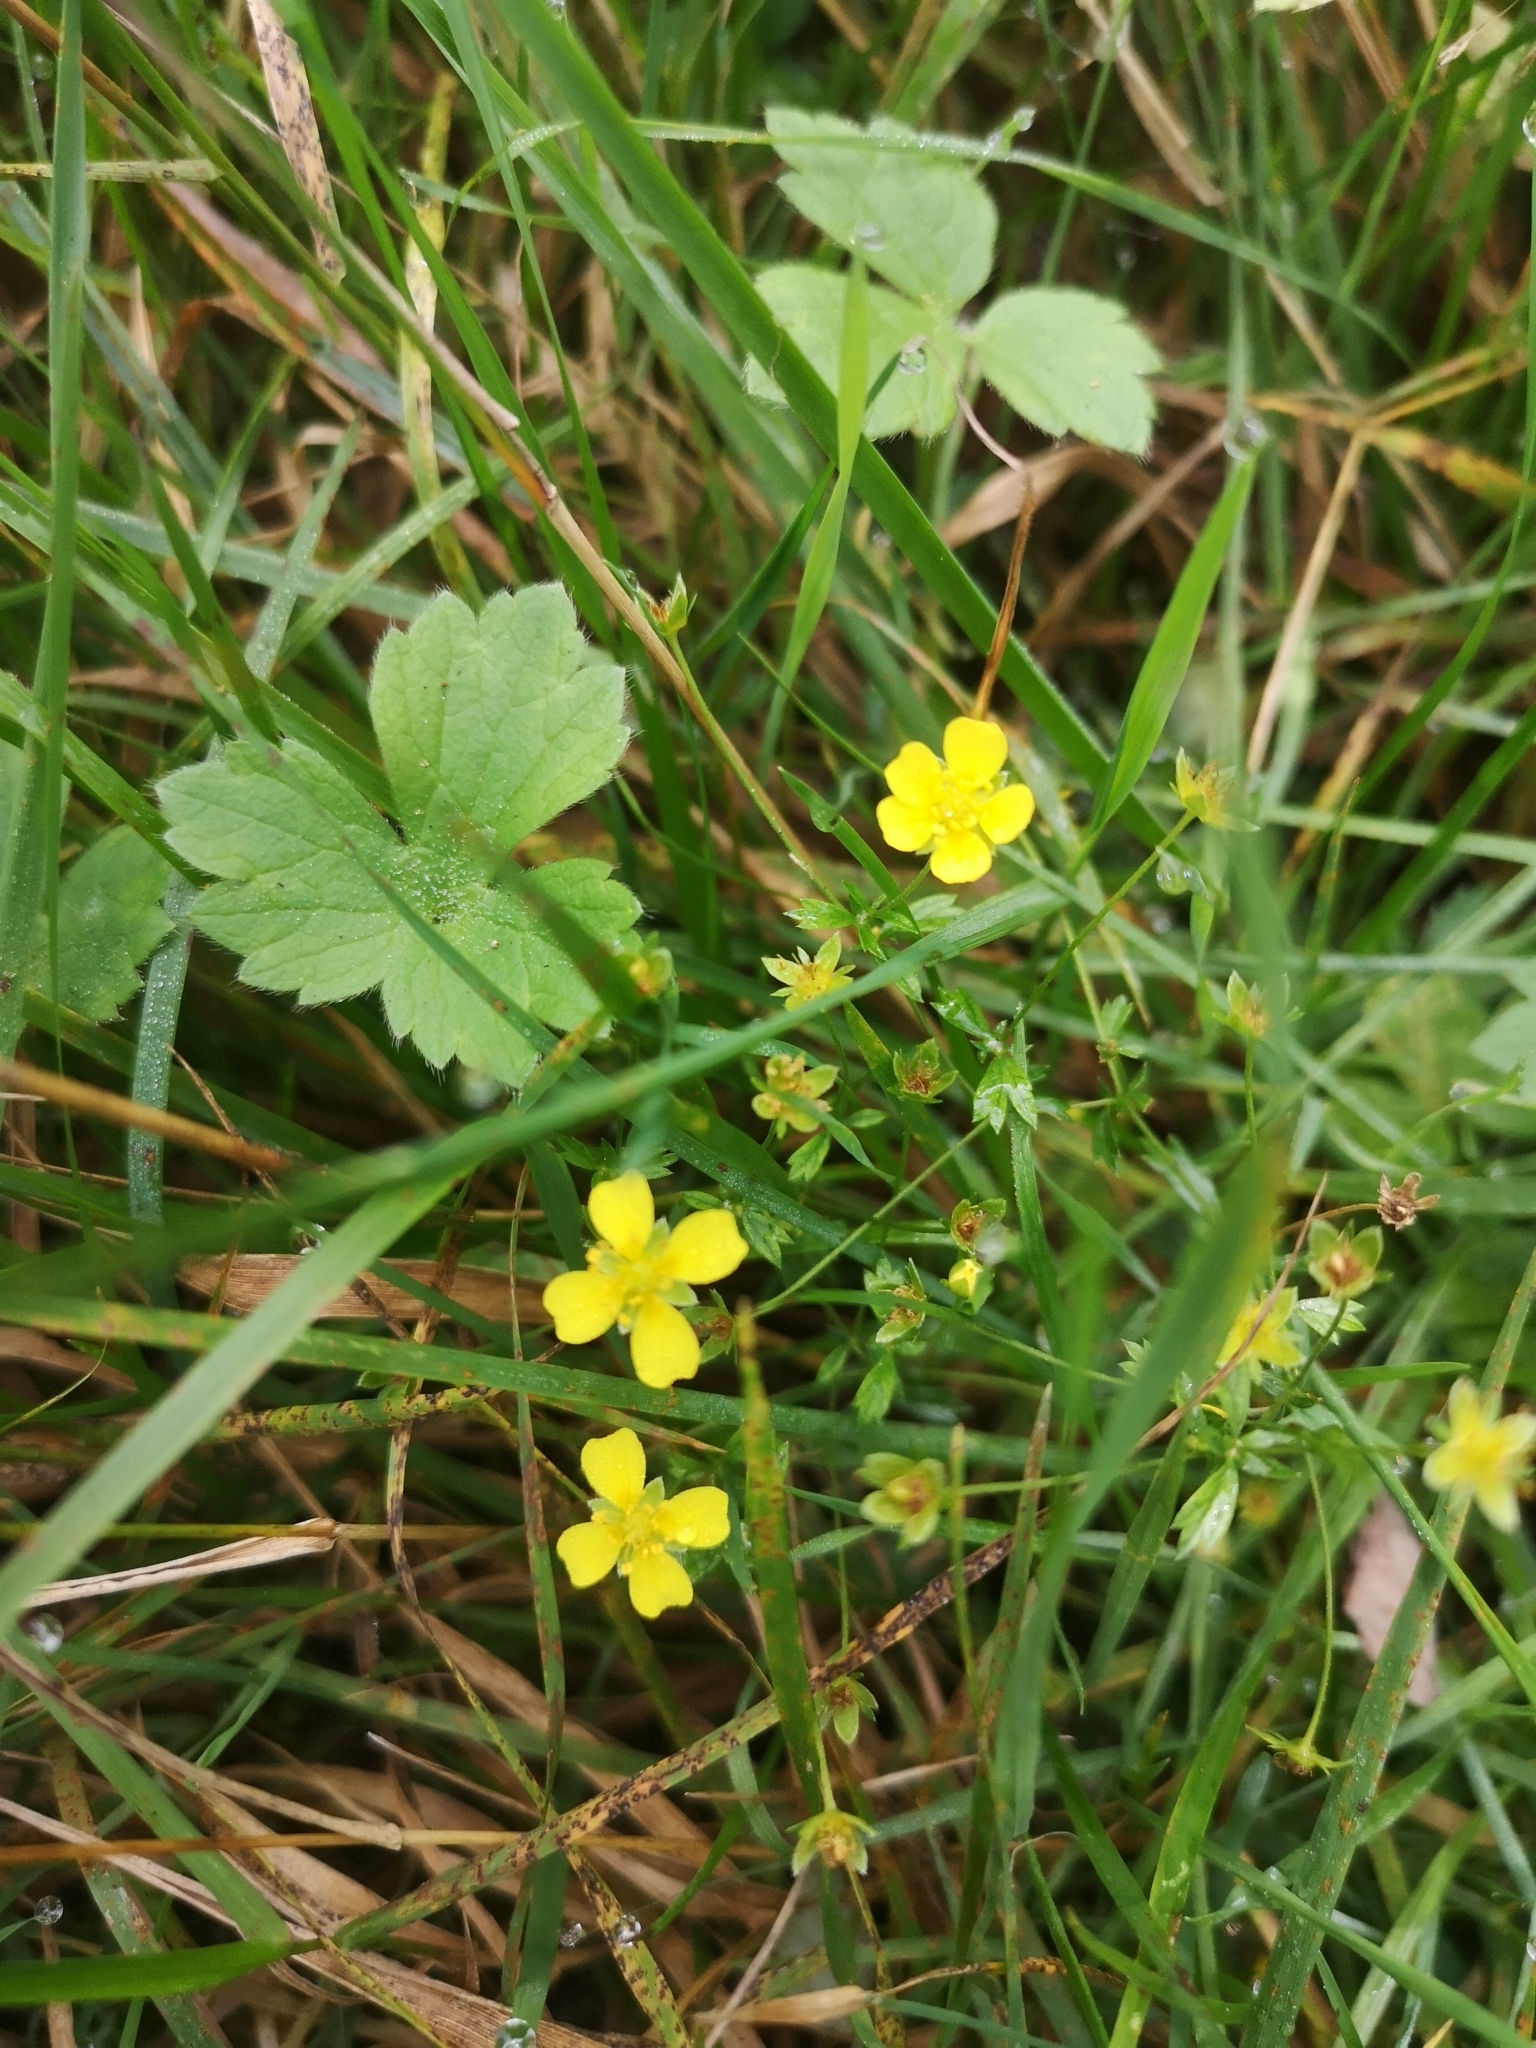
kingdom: Plantae
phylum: Tracheophyta
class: Magnoliopsida
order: Rosales
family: Rosaceae
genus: Potentilla
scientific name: Potentilla erecta
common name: Tormentil
